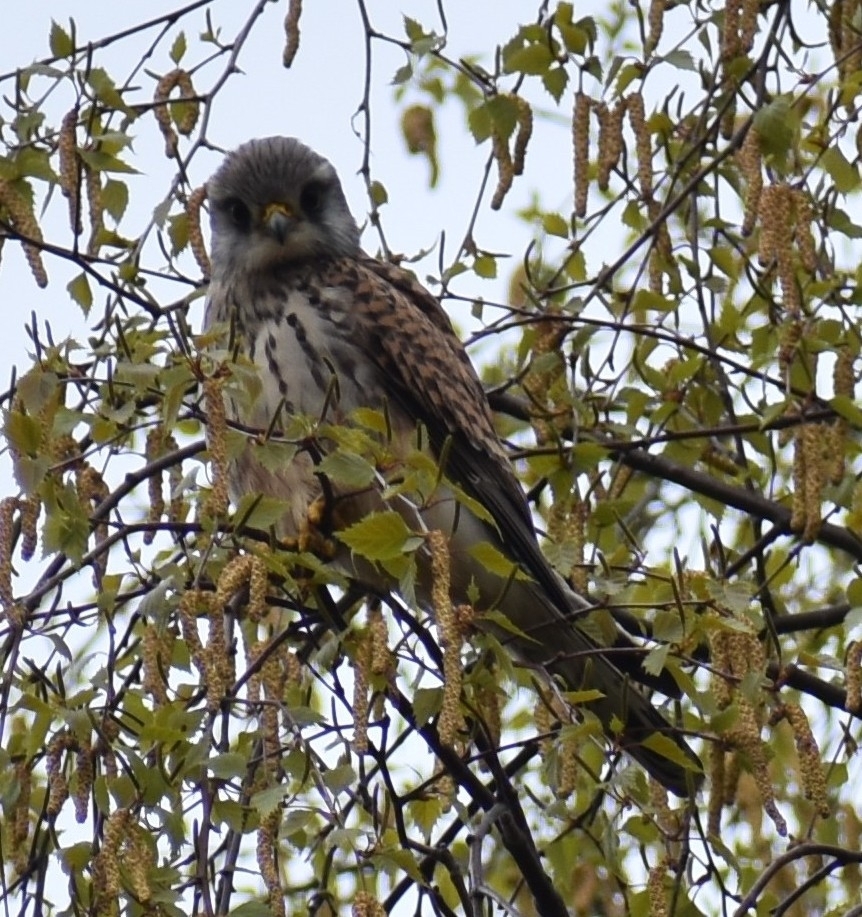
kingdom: Animalia
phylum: Chordata
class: Aves
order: Falconiformes
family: Falconidae
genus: Falco
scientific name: Falco tinnunculus
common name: Common kestrel
